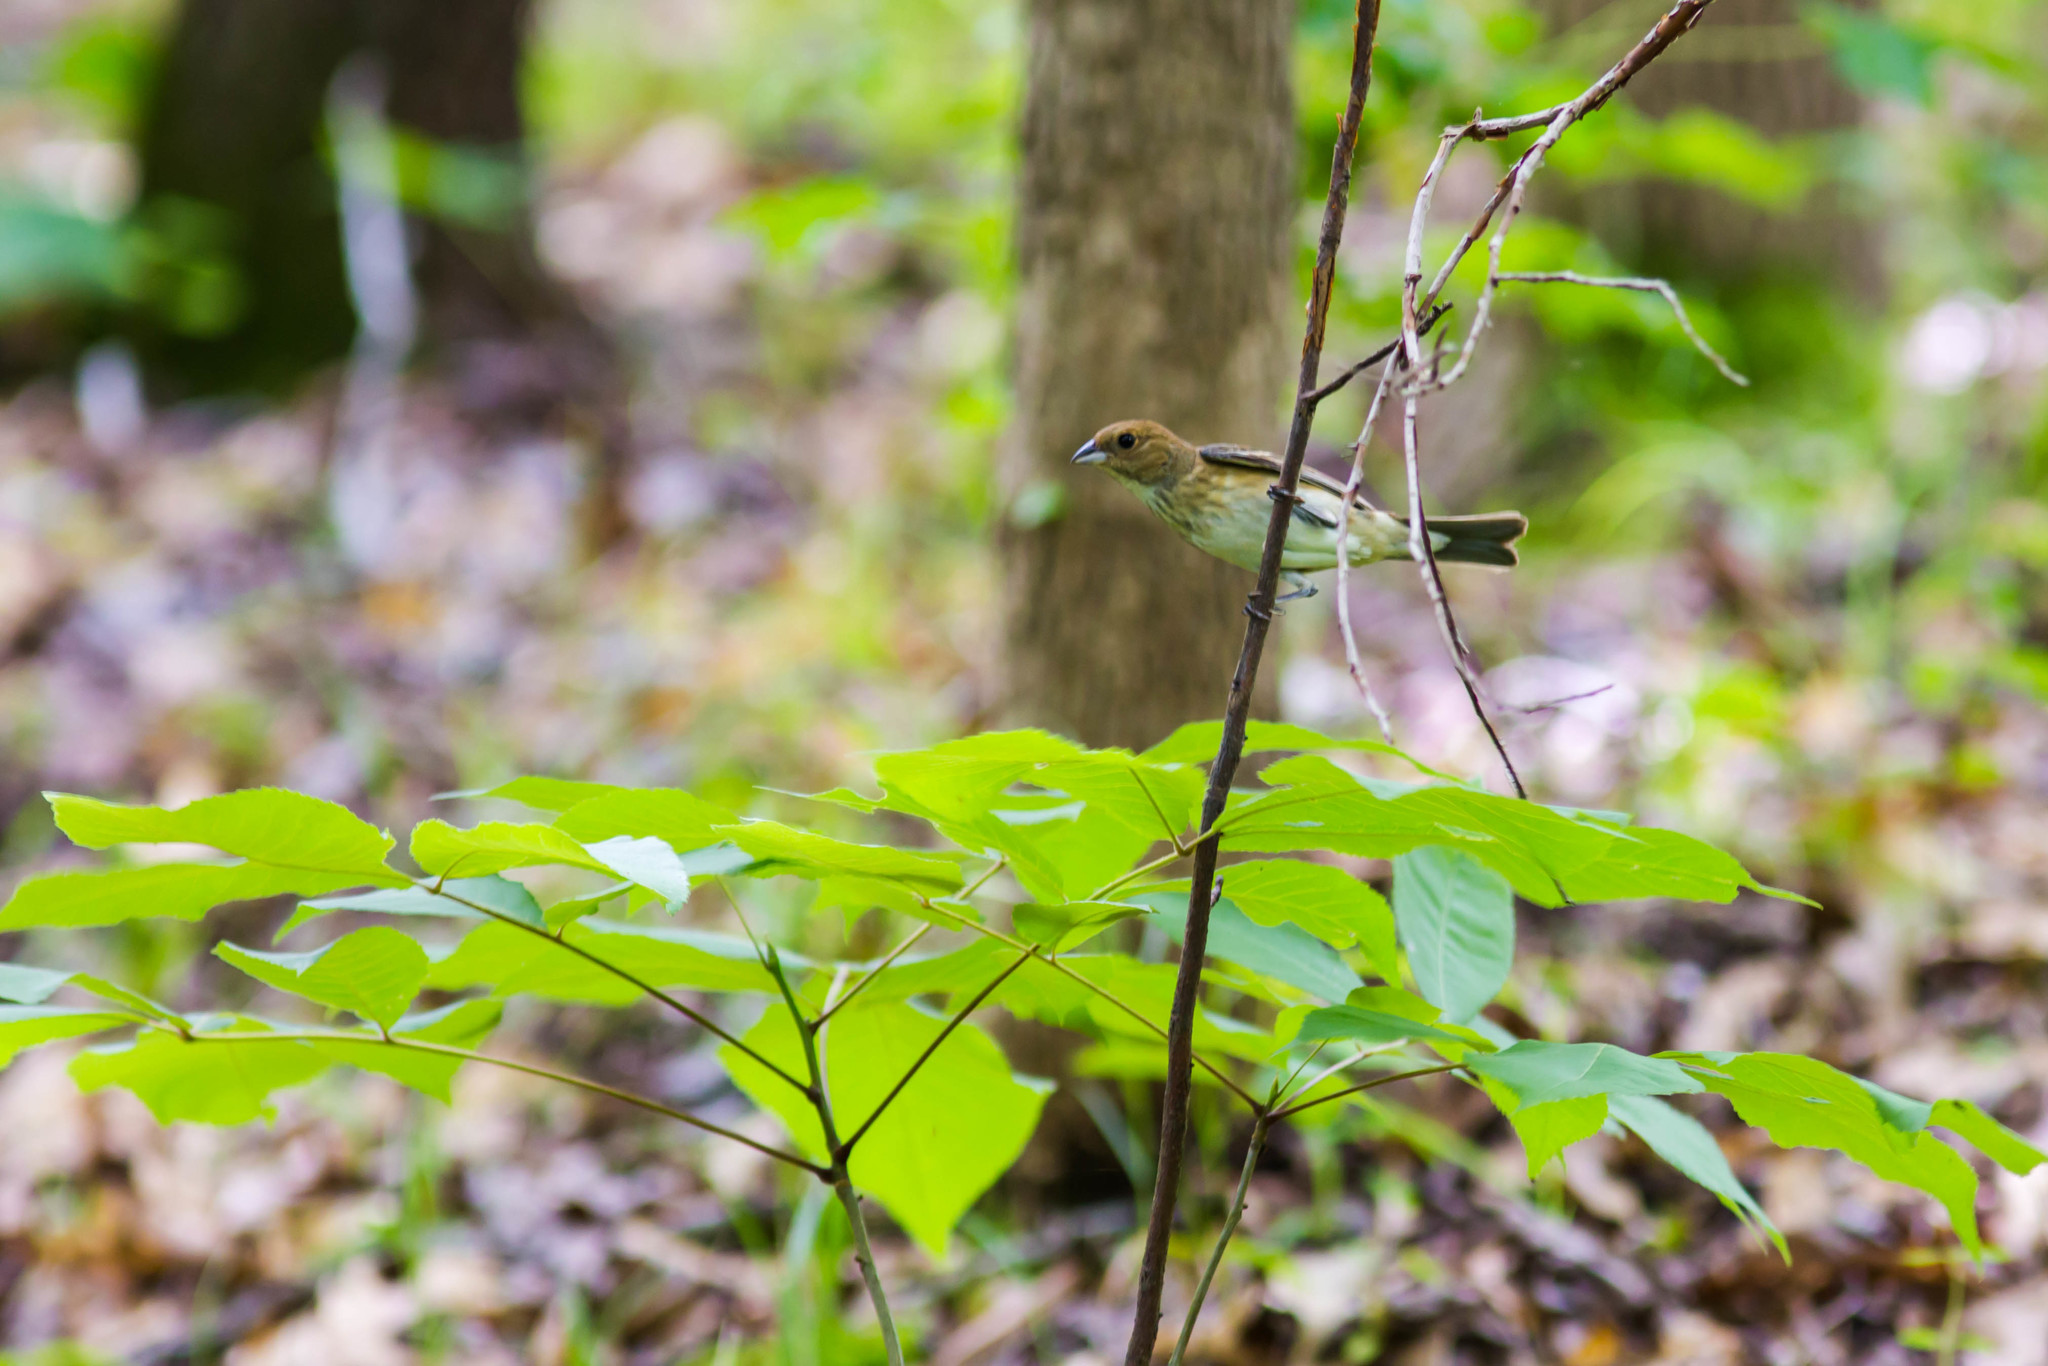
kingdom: Animalia
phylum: Chordata
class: Aves
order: Passeriformes
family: Cardinalidae
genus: Passerina
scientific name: Passerina cyanea
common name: Indigo bunting
